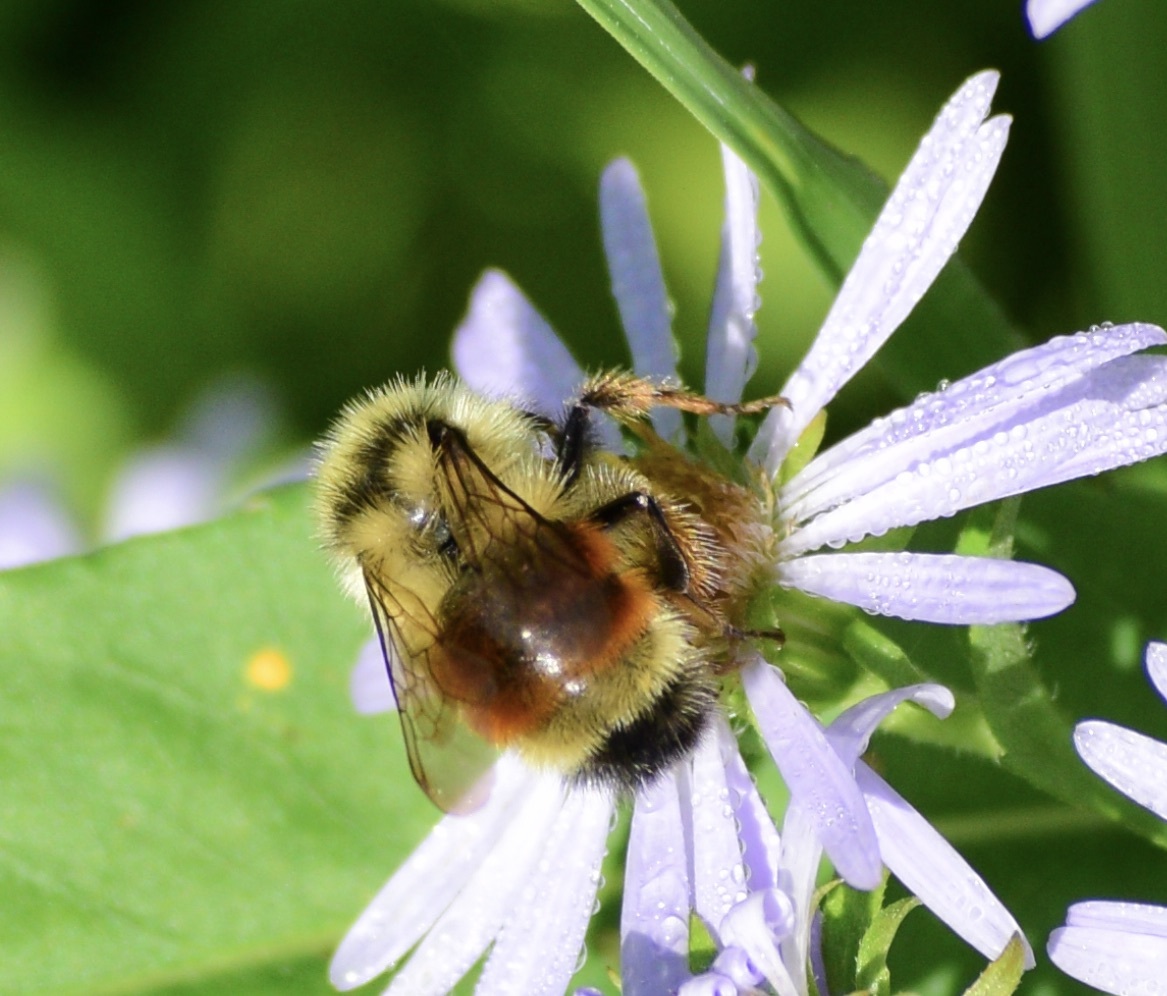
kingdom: Animalia
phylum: Arthropoda
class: Insecta
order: Hymenoptera
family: Apidae
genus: Bombus
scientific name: Bombus ternarius
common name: Tri-colored bumble bee
